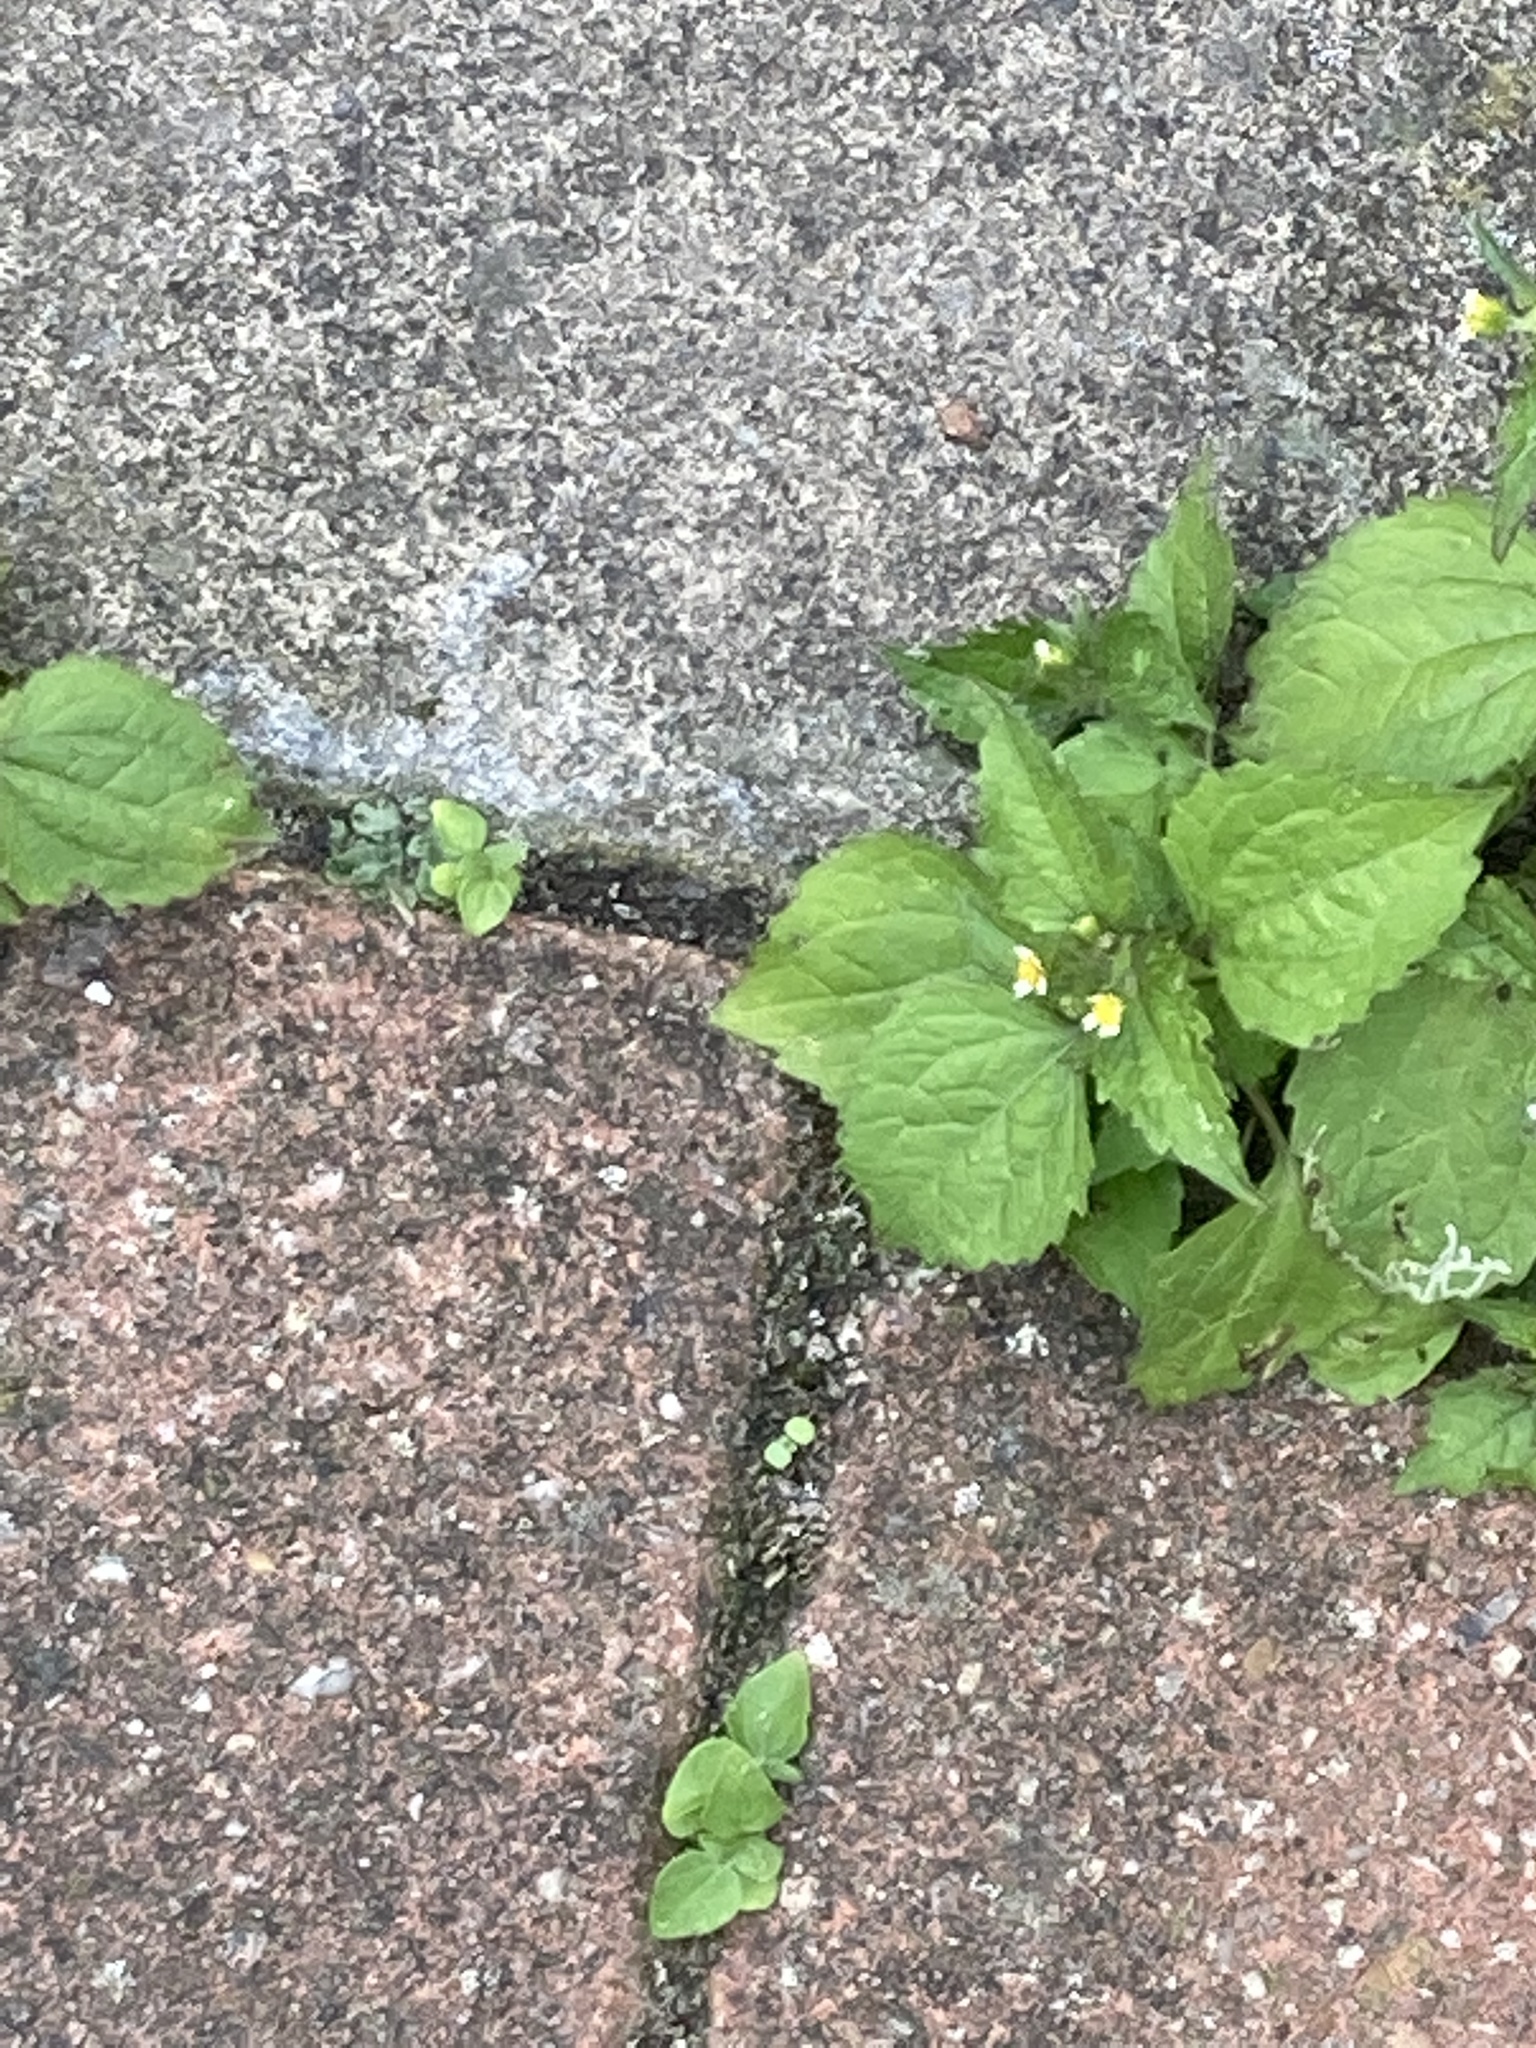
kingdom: Plantae
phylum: Tracheophyta
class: Magnoliopsida
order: Asterales
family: Asteraceae
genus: Galinsoga
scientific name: Galinsoga quadriradiata
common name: Shaggy soldier
